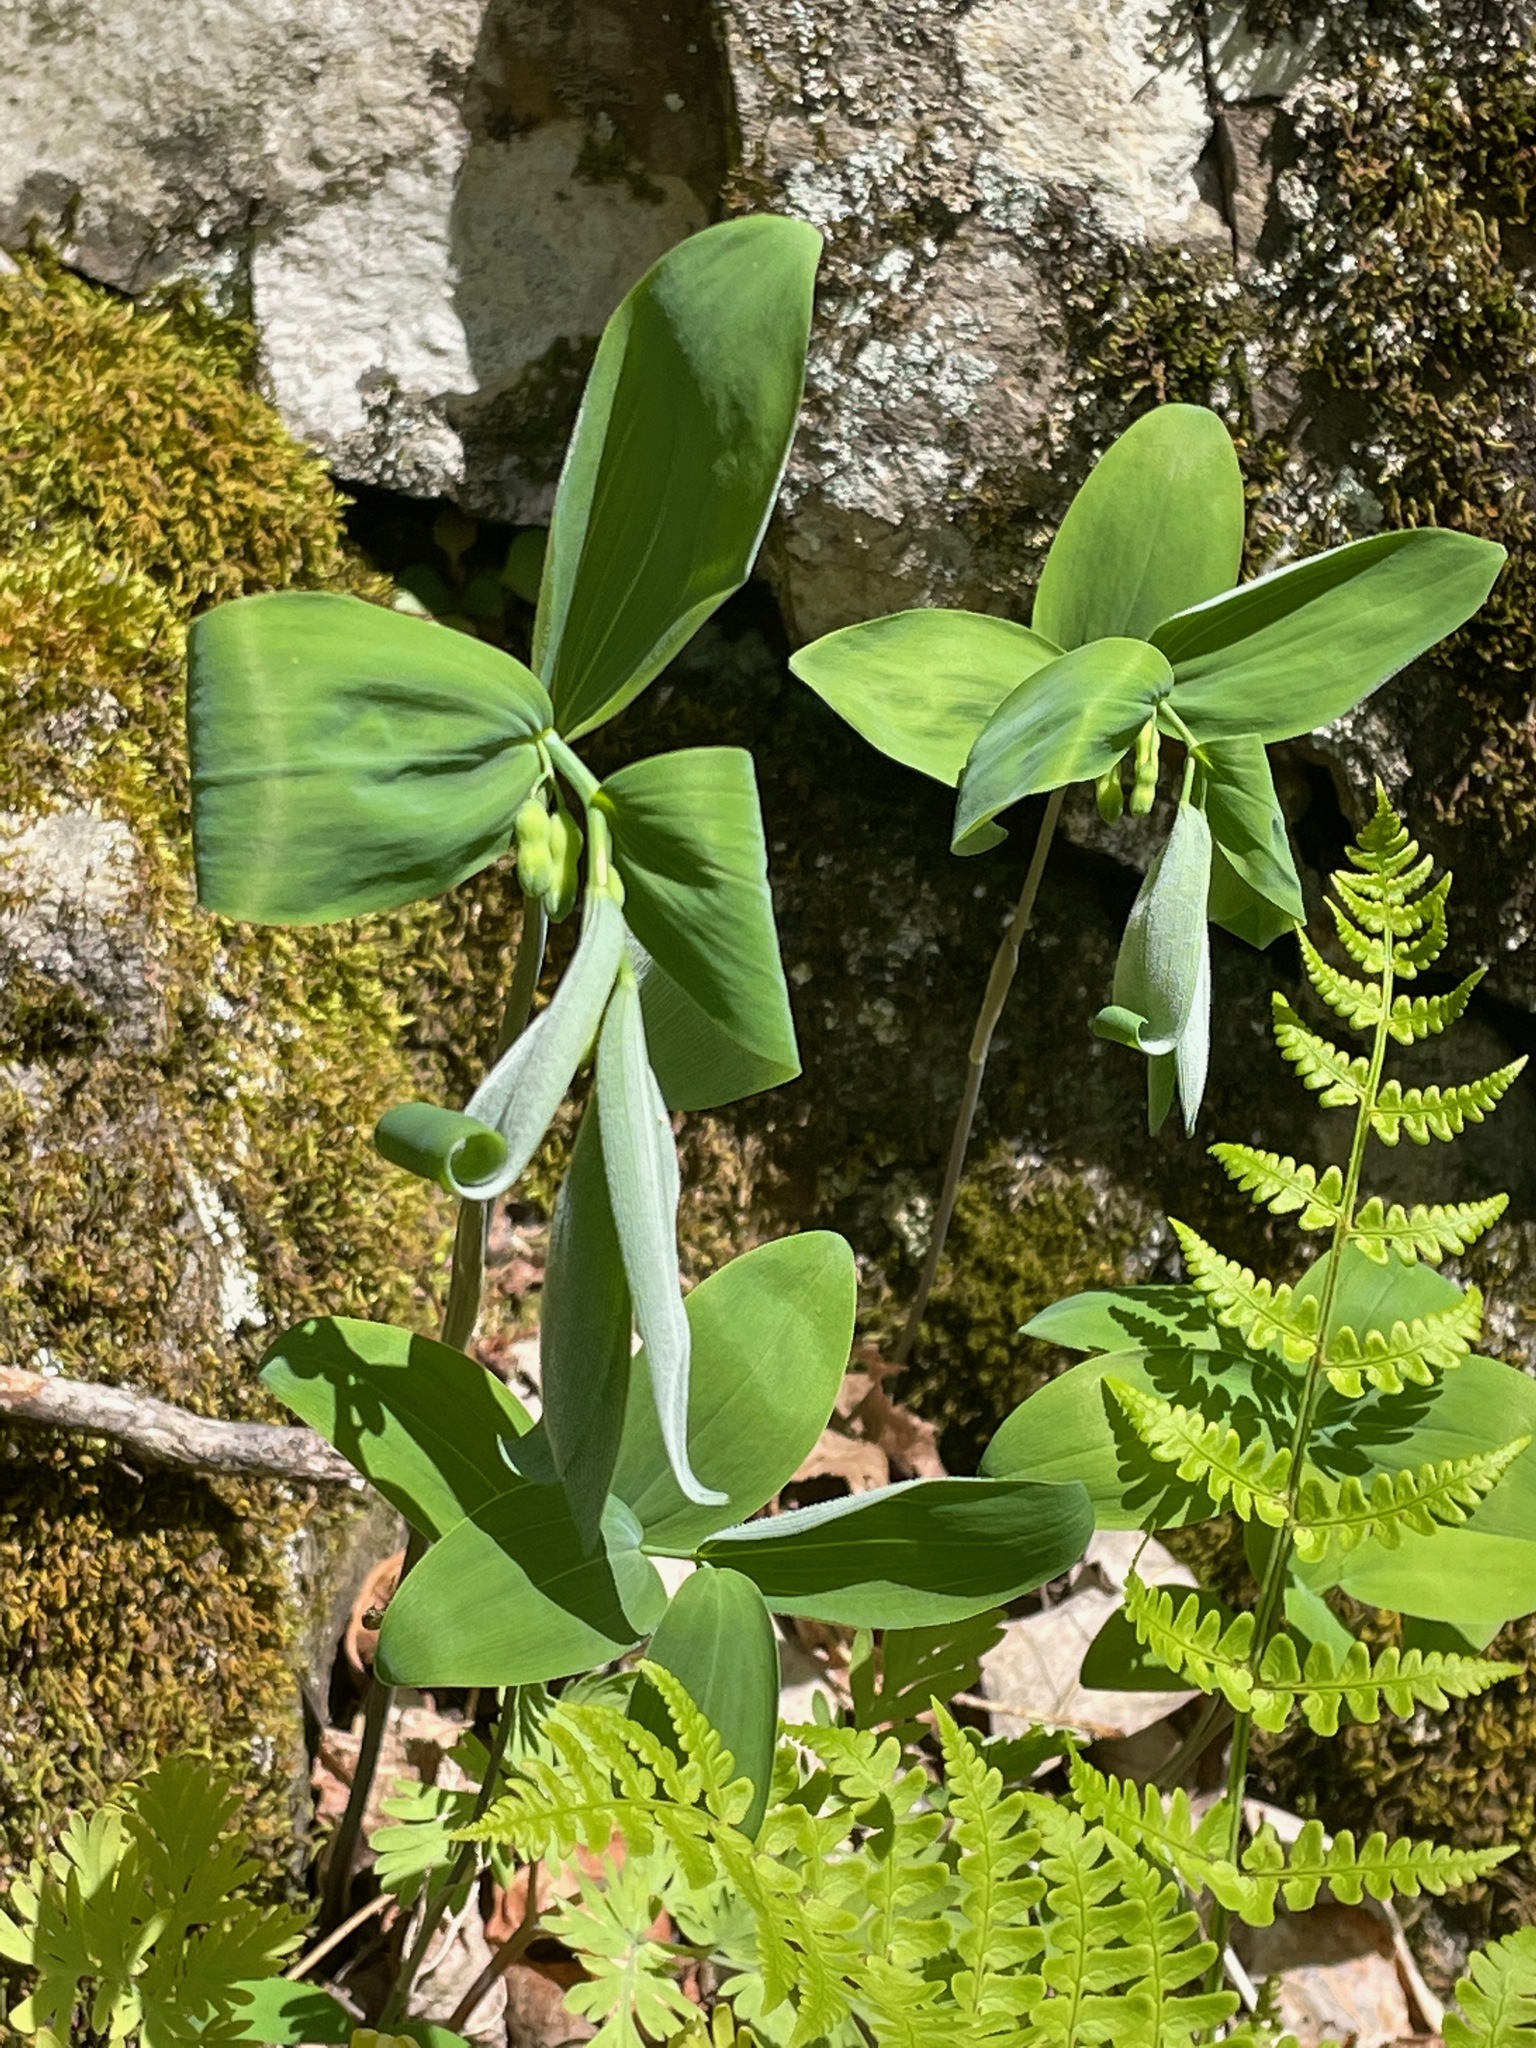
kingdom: Plantae
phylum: Tracheophyta
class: Liliopsida
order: Asparagales
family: Asparagaceae
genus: Polygonatum
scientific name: Polygonatum pubescens
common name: Downy solomon's seal
